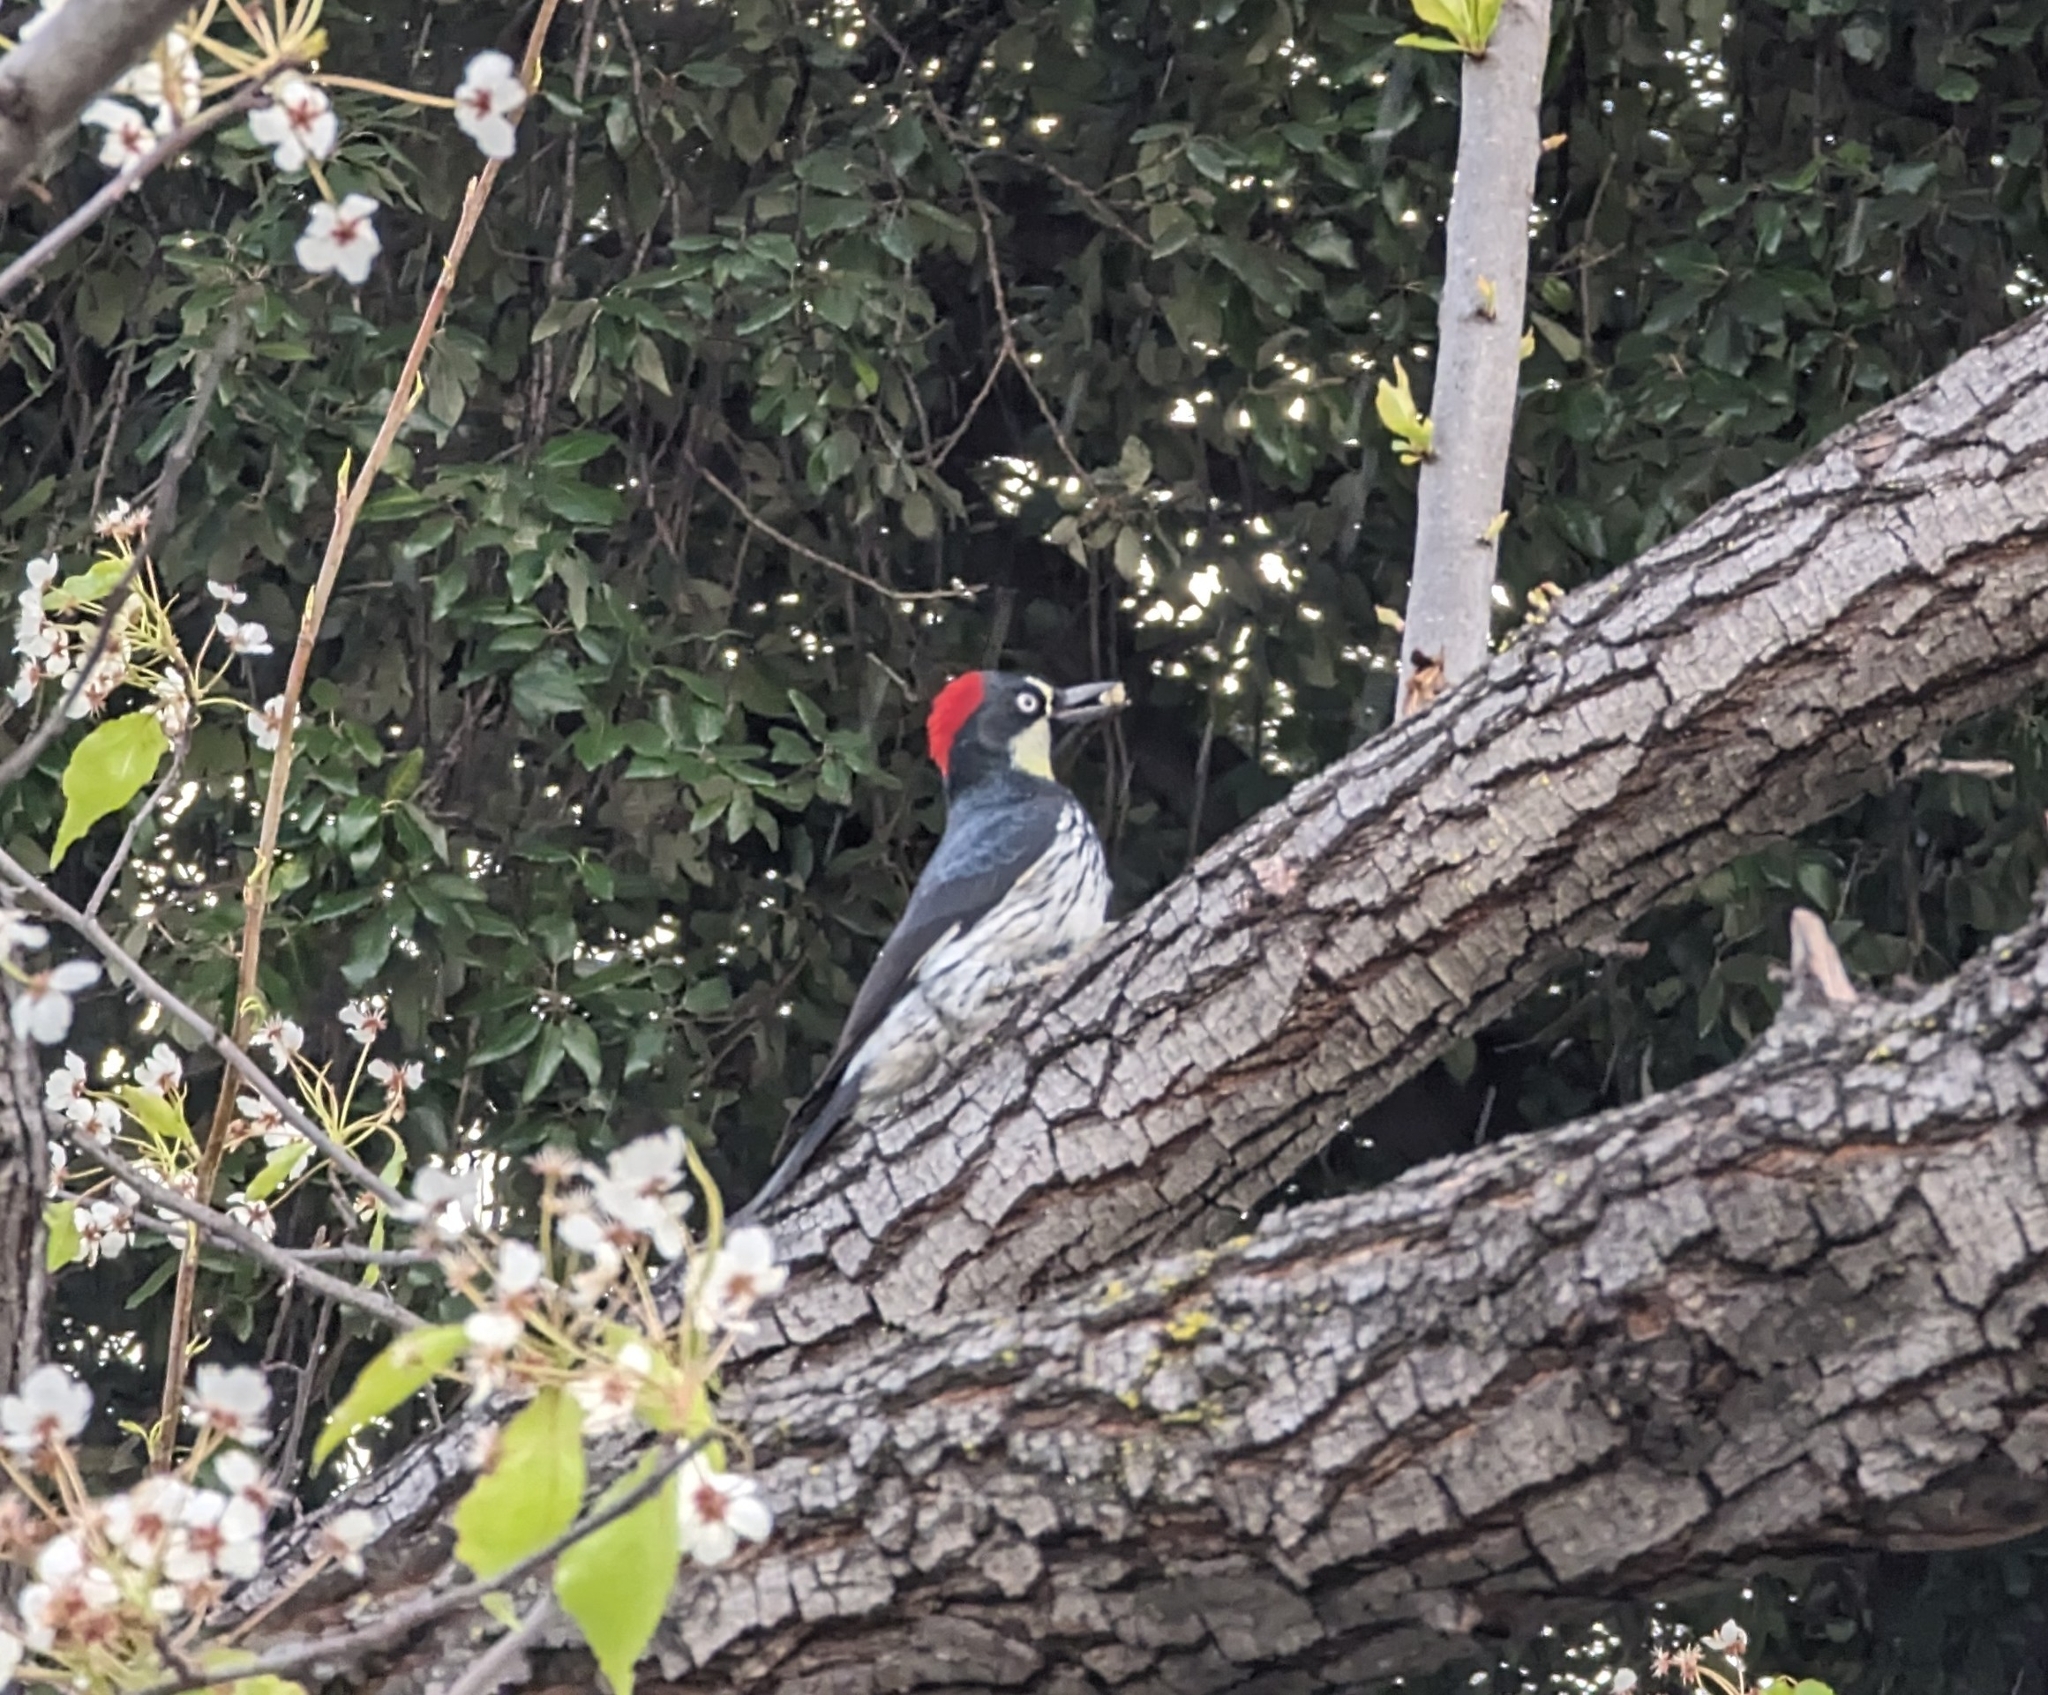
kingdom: Animalia
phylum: Chordata
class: Aves
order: Piciformes
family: Picidae
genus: Melanerpes
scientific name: Melanerpes formicivorus
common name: Acorn woodpecker
